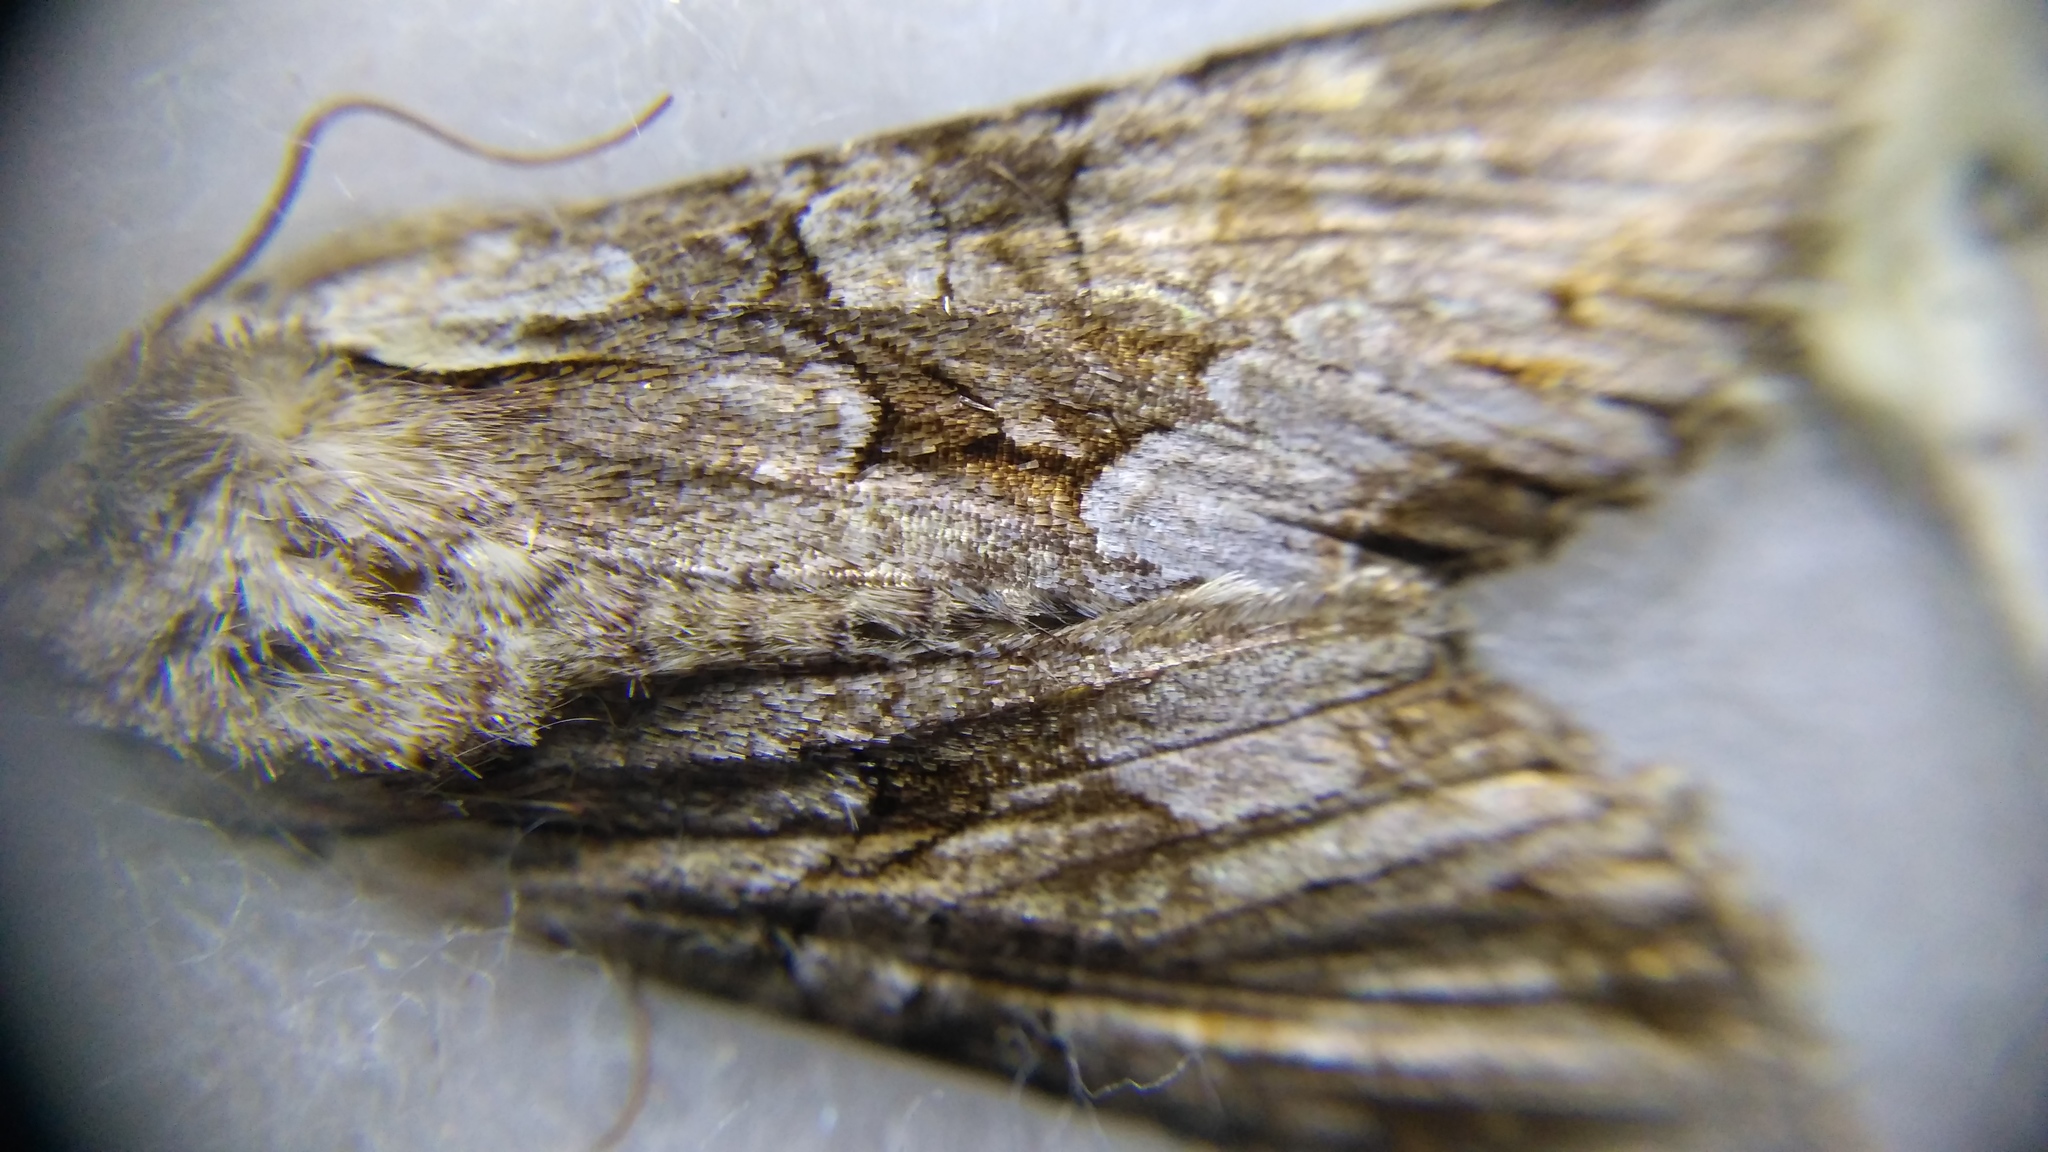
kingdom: Animalia
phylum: Arthropoda
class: Insecta
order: Lepidoptera
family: Noctuidae
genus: Lacanobia
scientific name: Lacanobia w-latinum
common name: Light brocade
